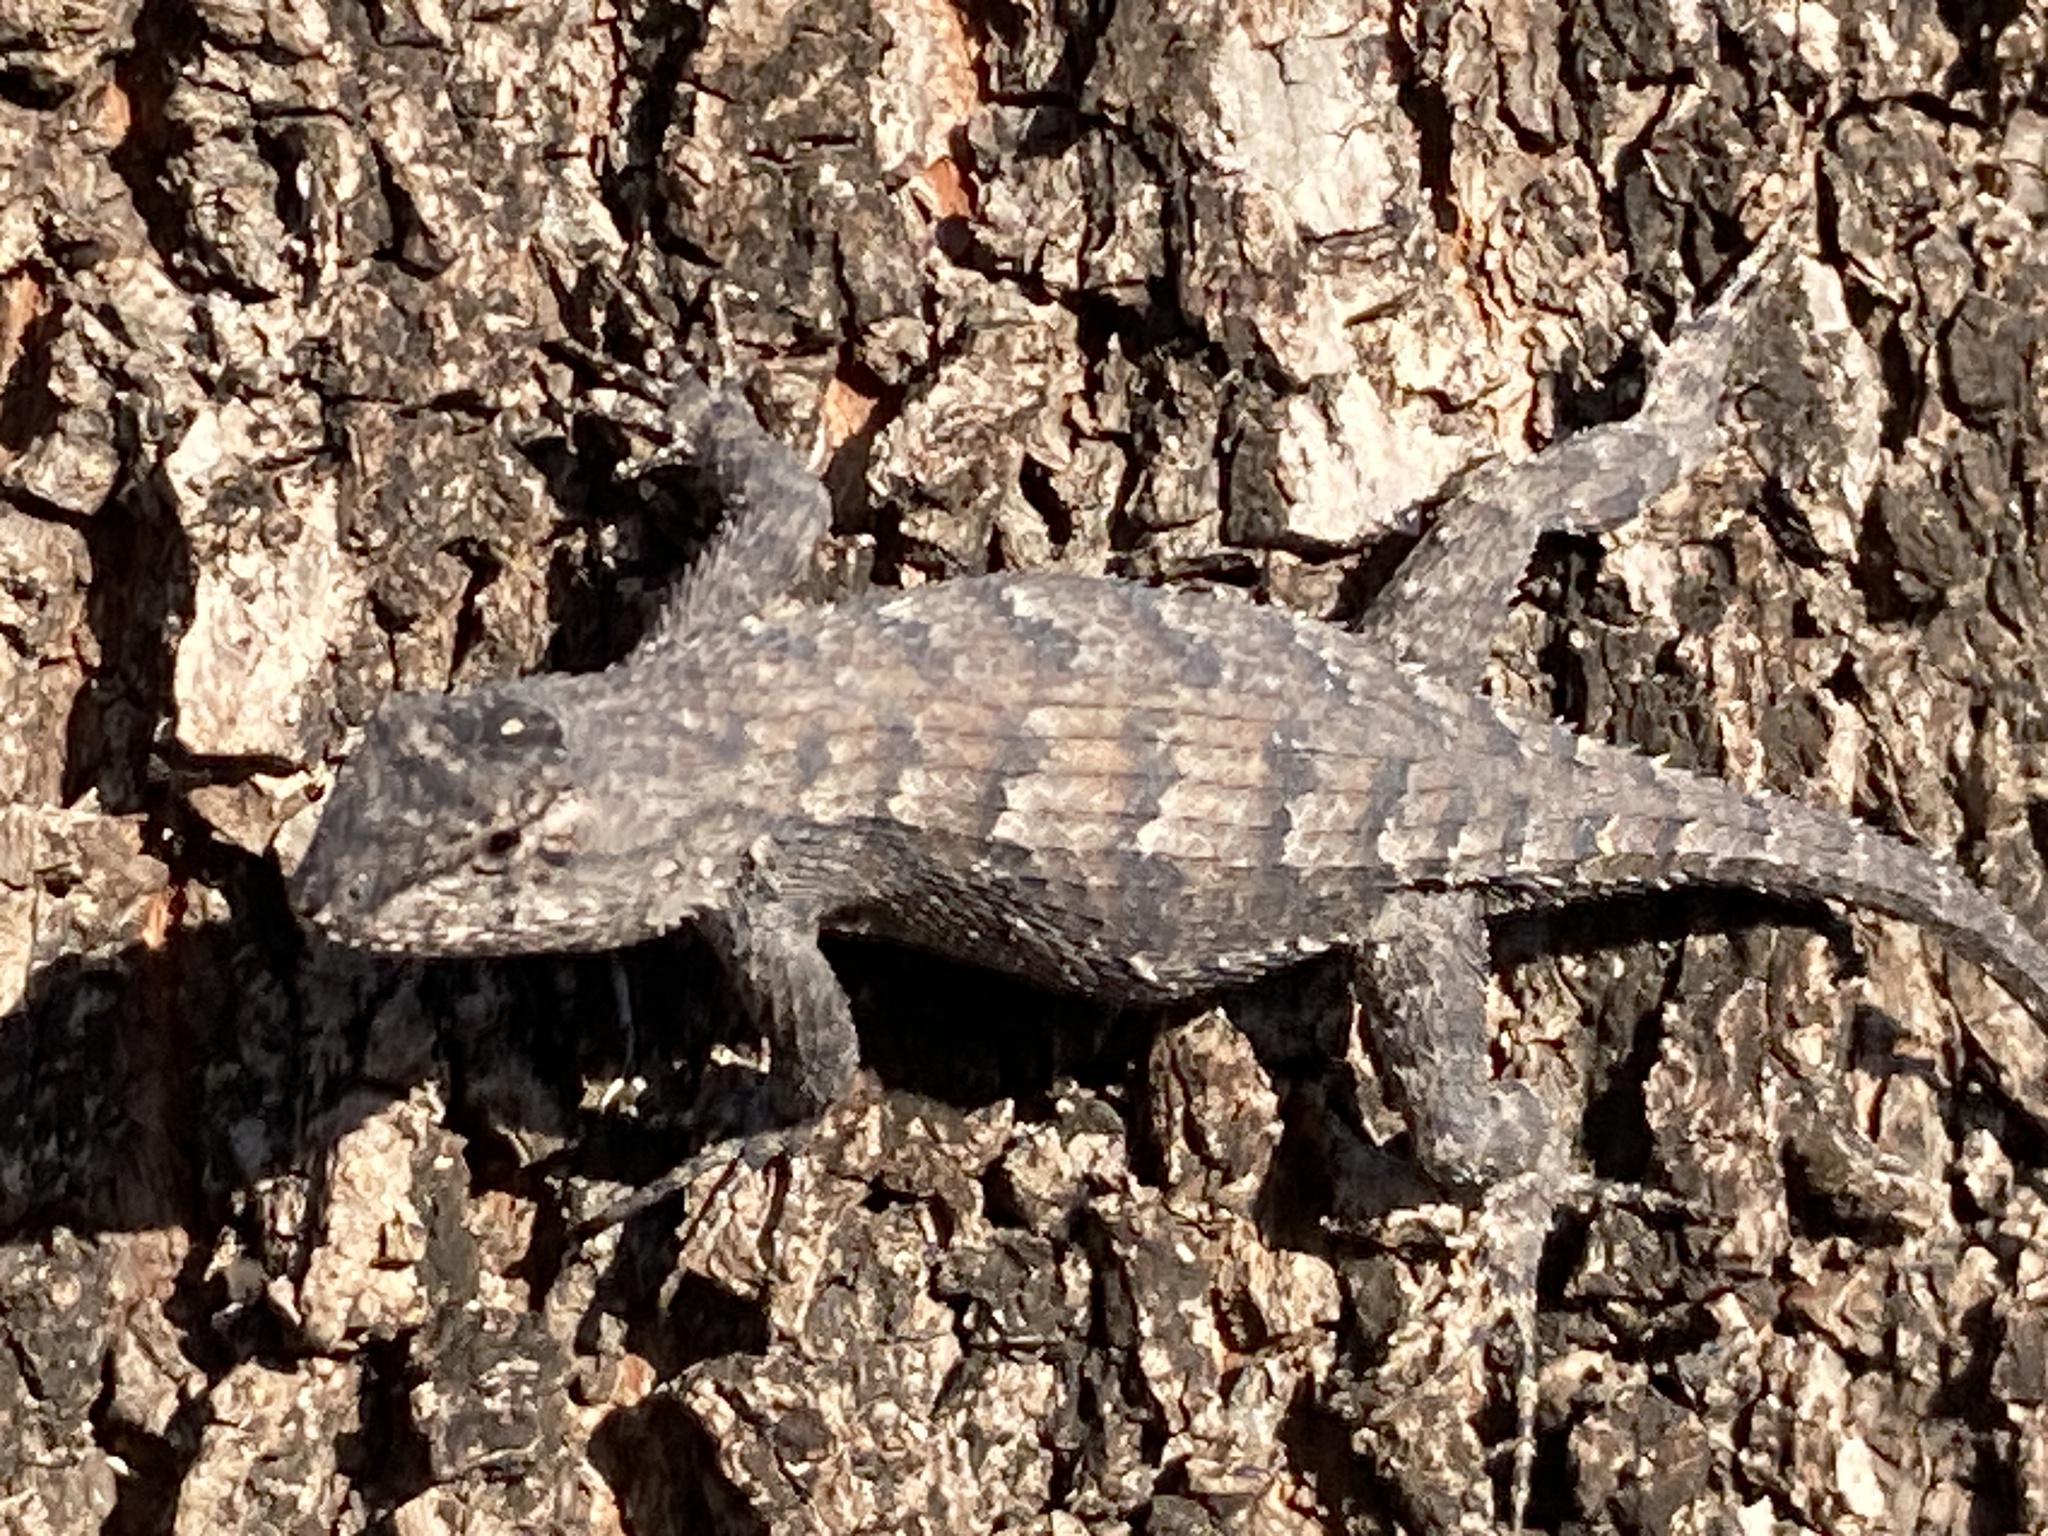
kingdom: Animalia
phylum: Chordata
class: Squamata
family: Phrynosomatidae
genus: Sceloporus
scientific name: Sceloporus undulatus
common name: Eastern fence lizard
